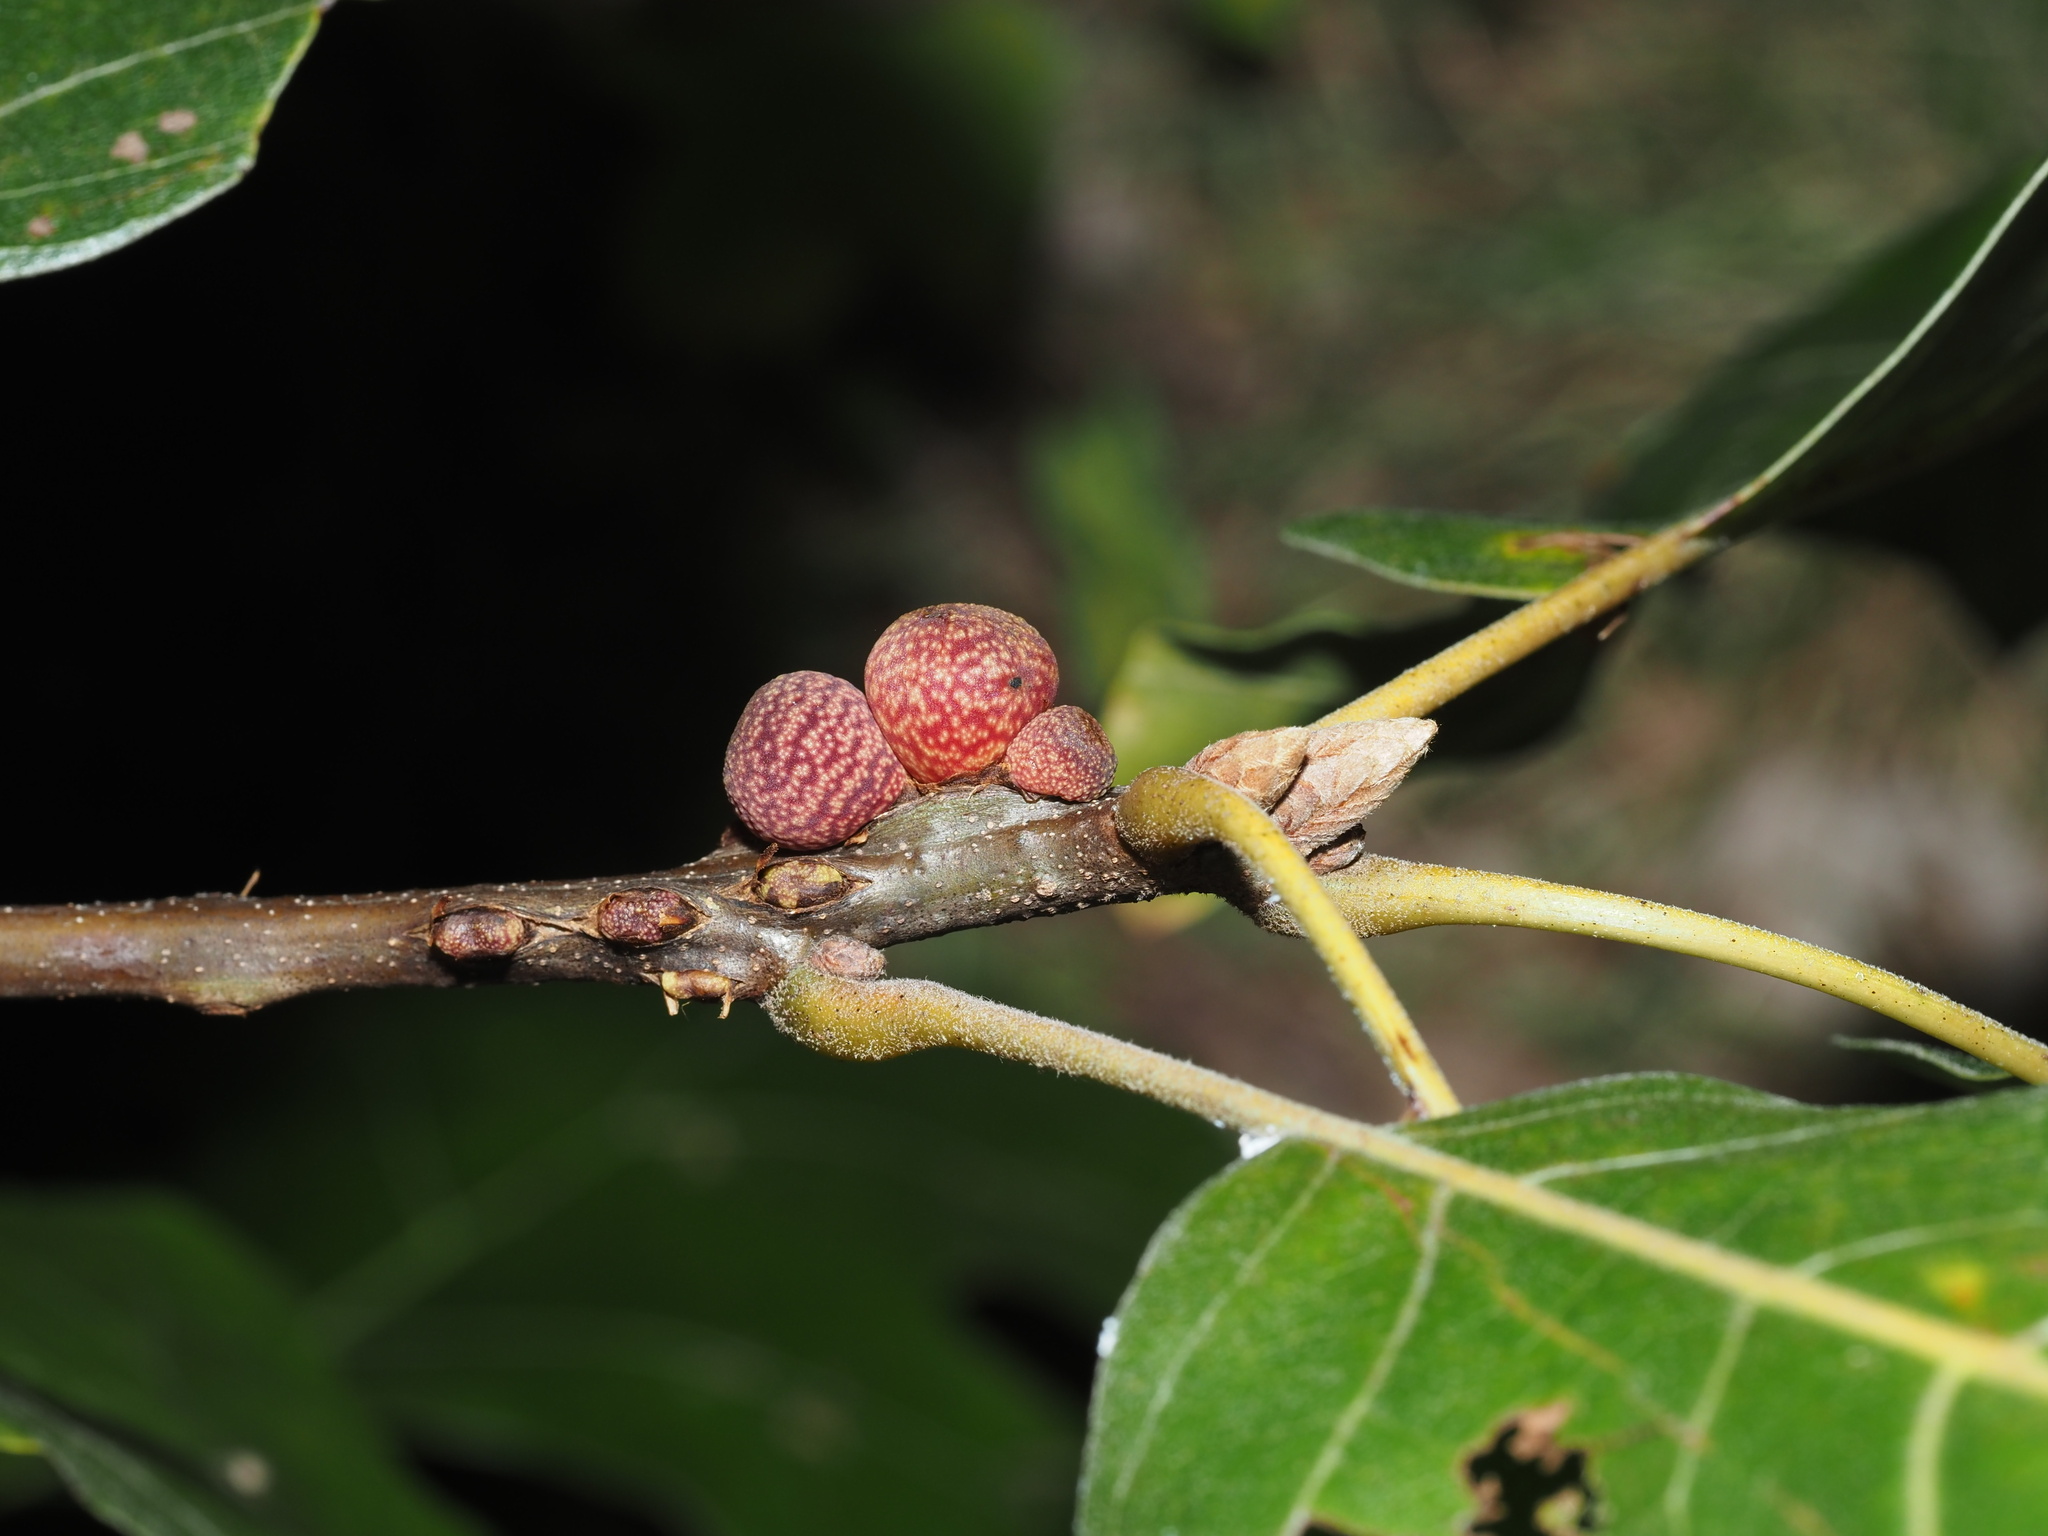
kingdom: Animalia
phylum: Arthropoda
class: Insecta
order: Hymenoptera
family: Cynipidae
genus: Kokkocynips
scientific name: Kokkocynips imbricariae
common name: Banded bullet gall wasp
